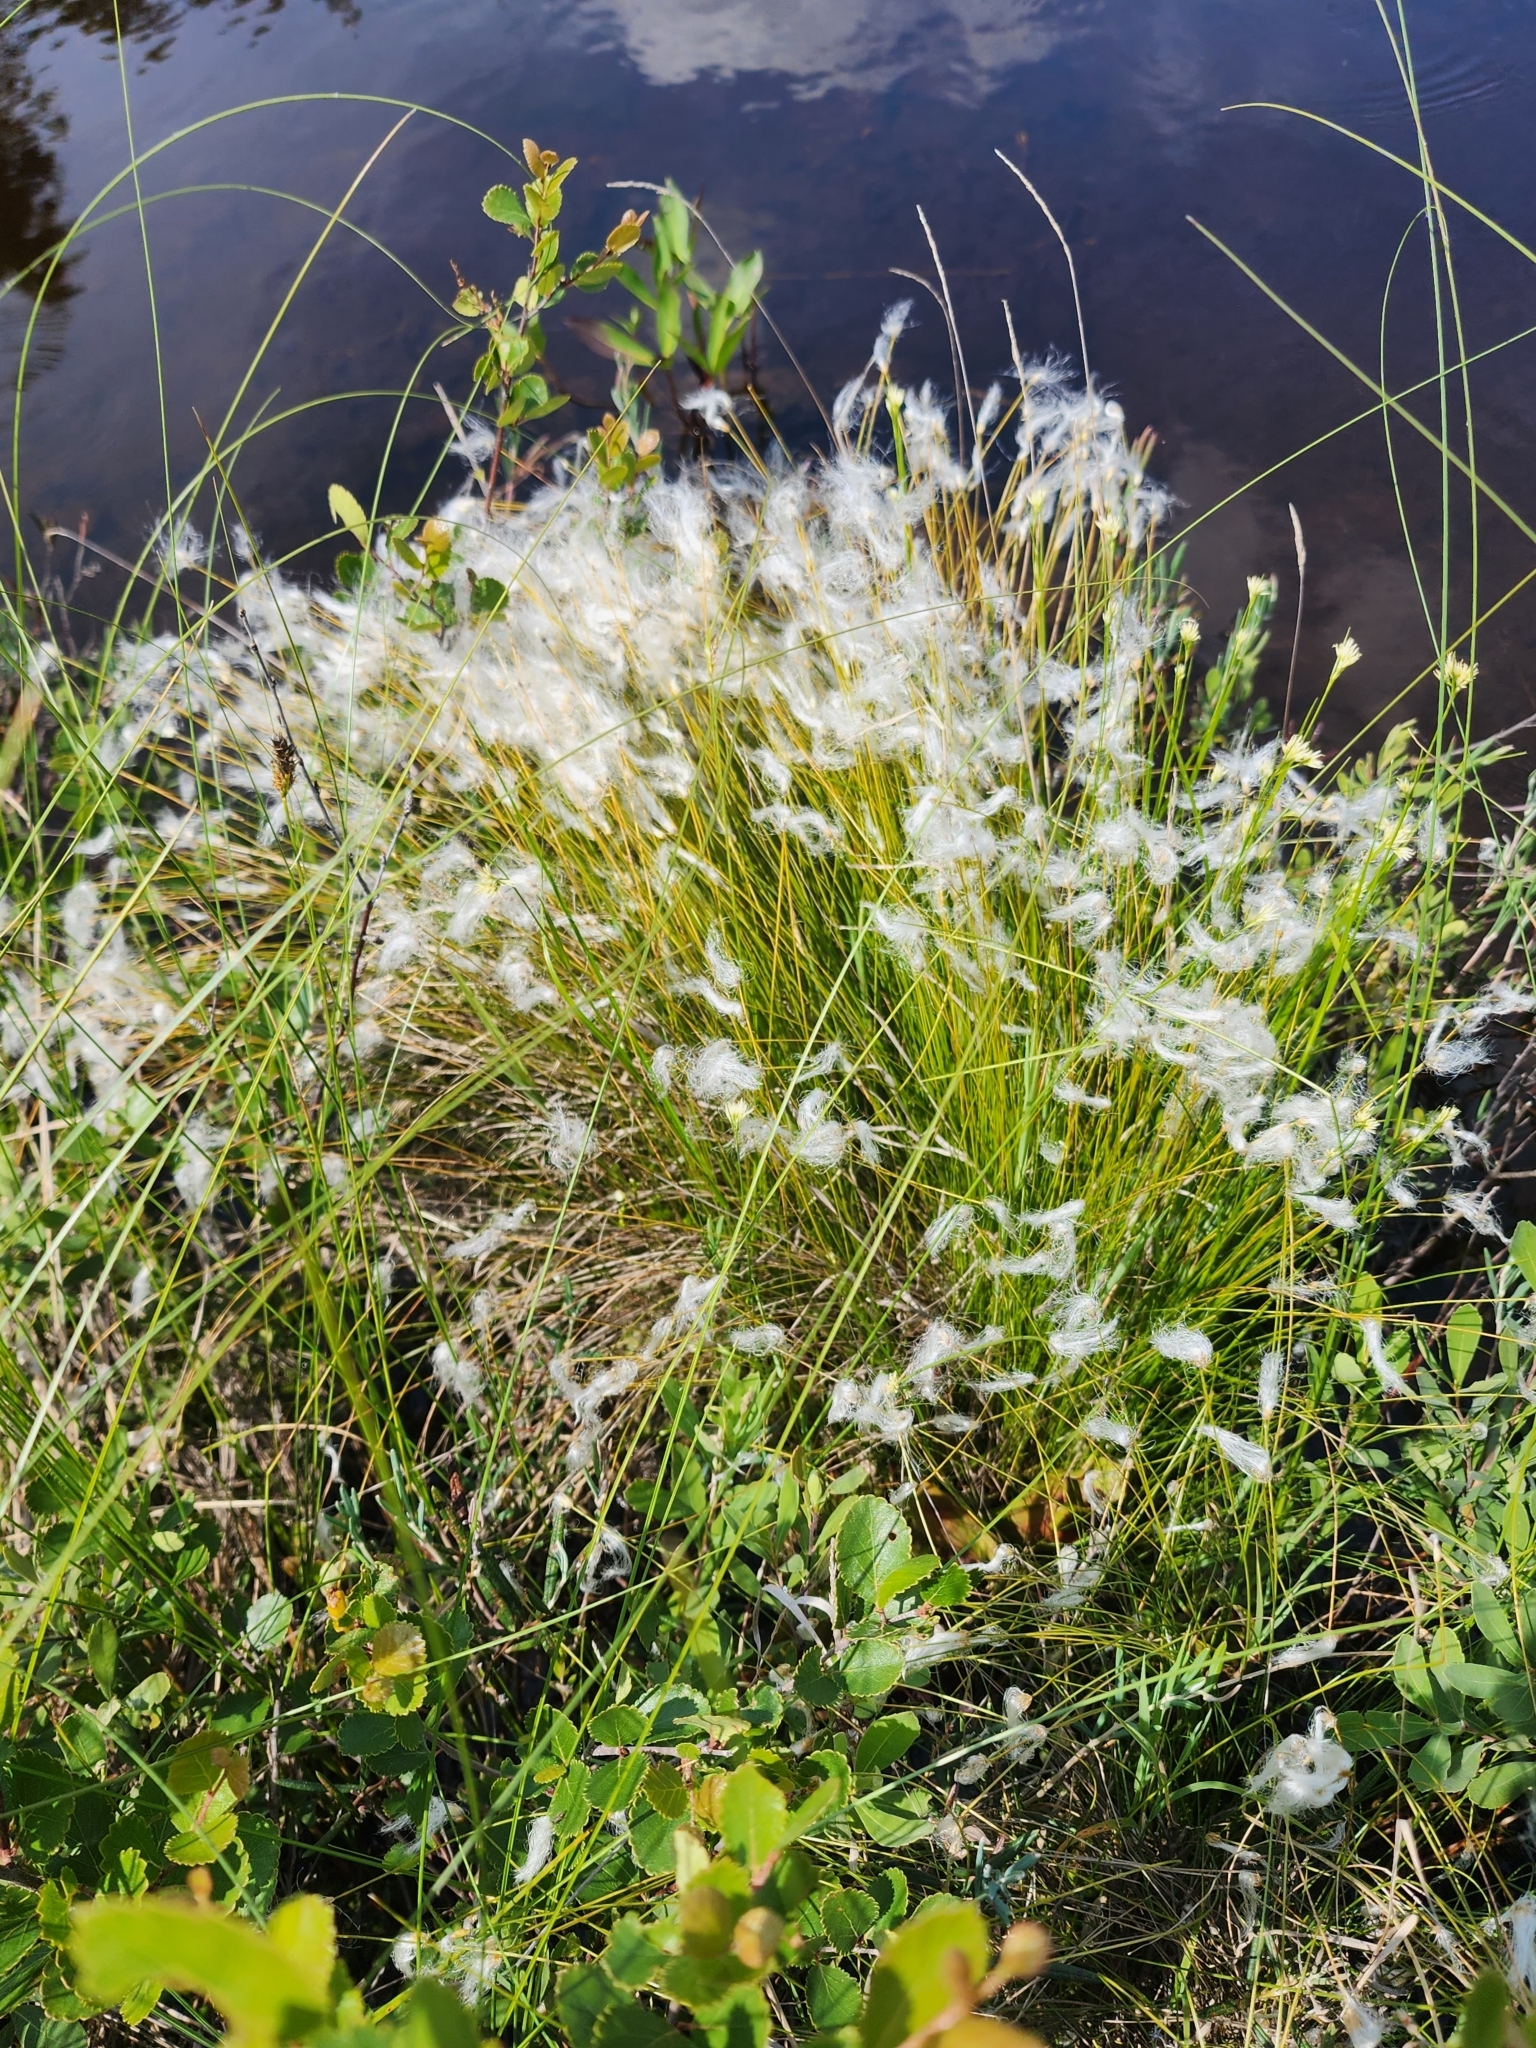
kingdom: Plantae
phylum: Tracheophyta
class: Liliopsida
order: Poales
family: Cyperaceae
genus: Trichophorum
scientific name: Trichophorum alpinum
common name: Alpine bulrush
